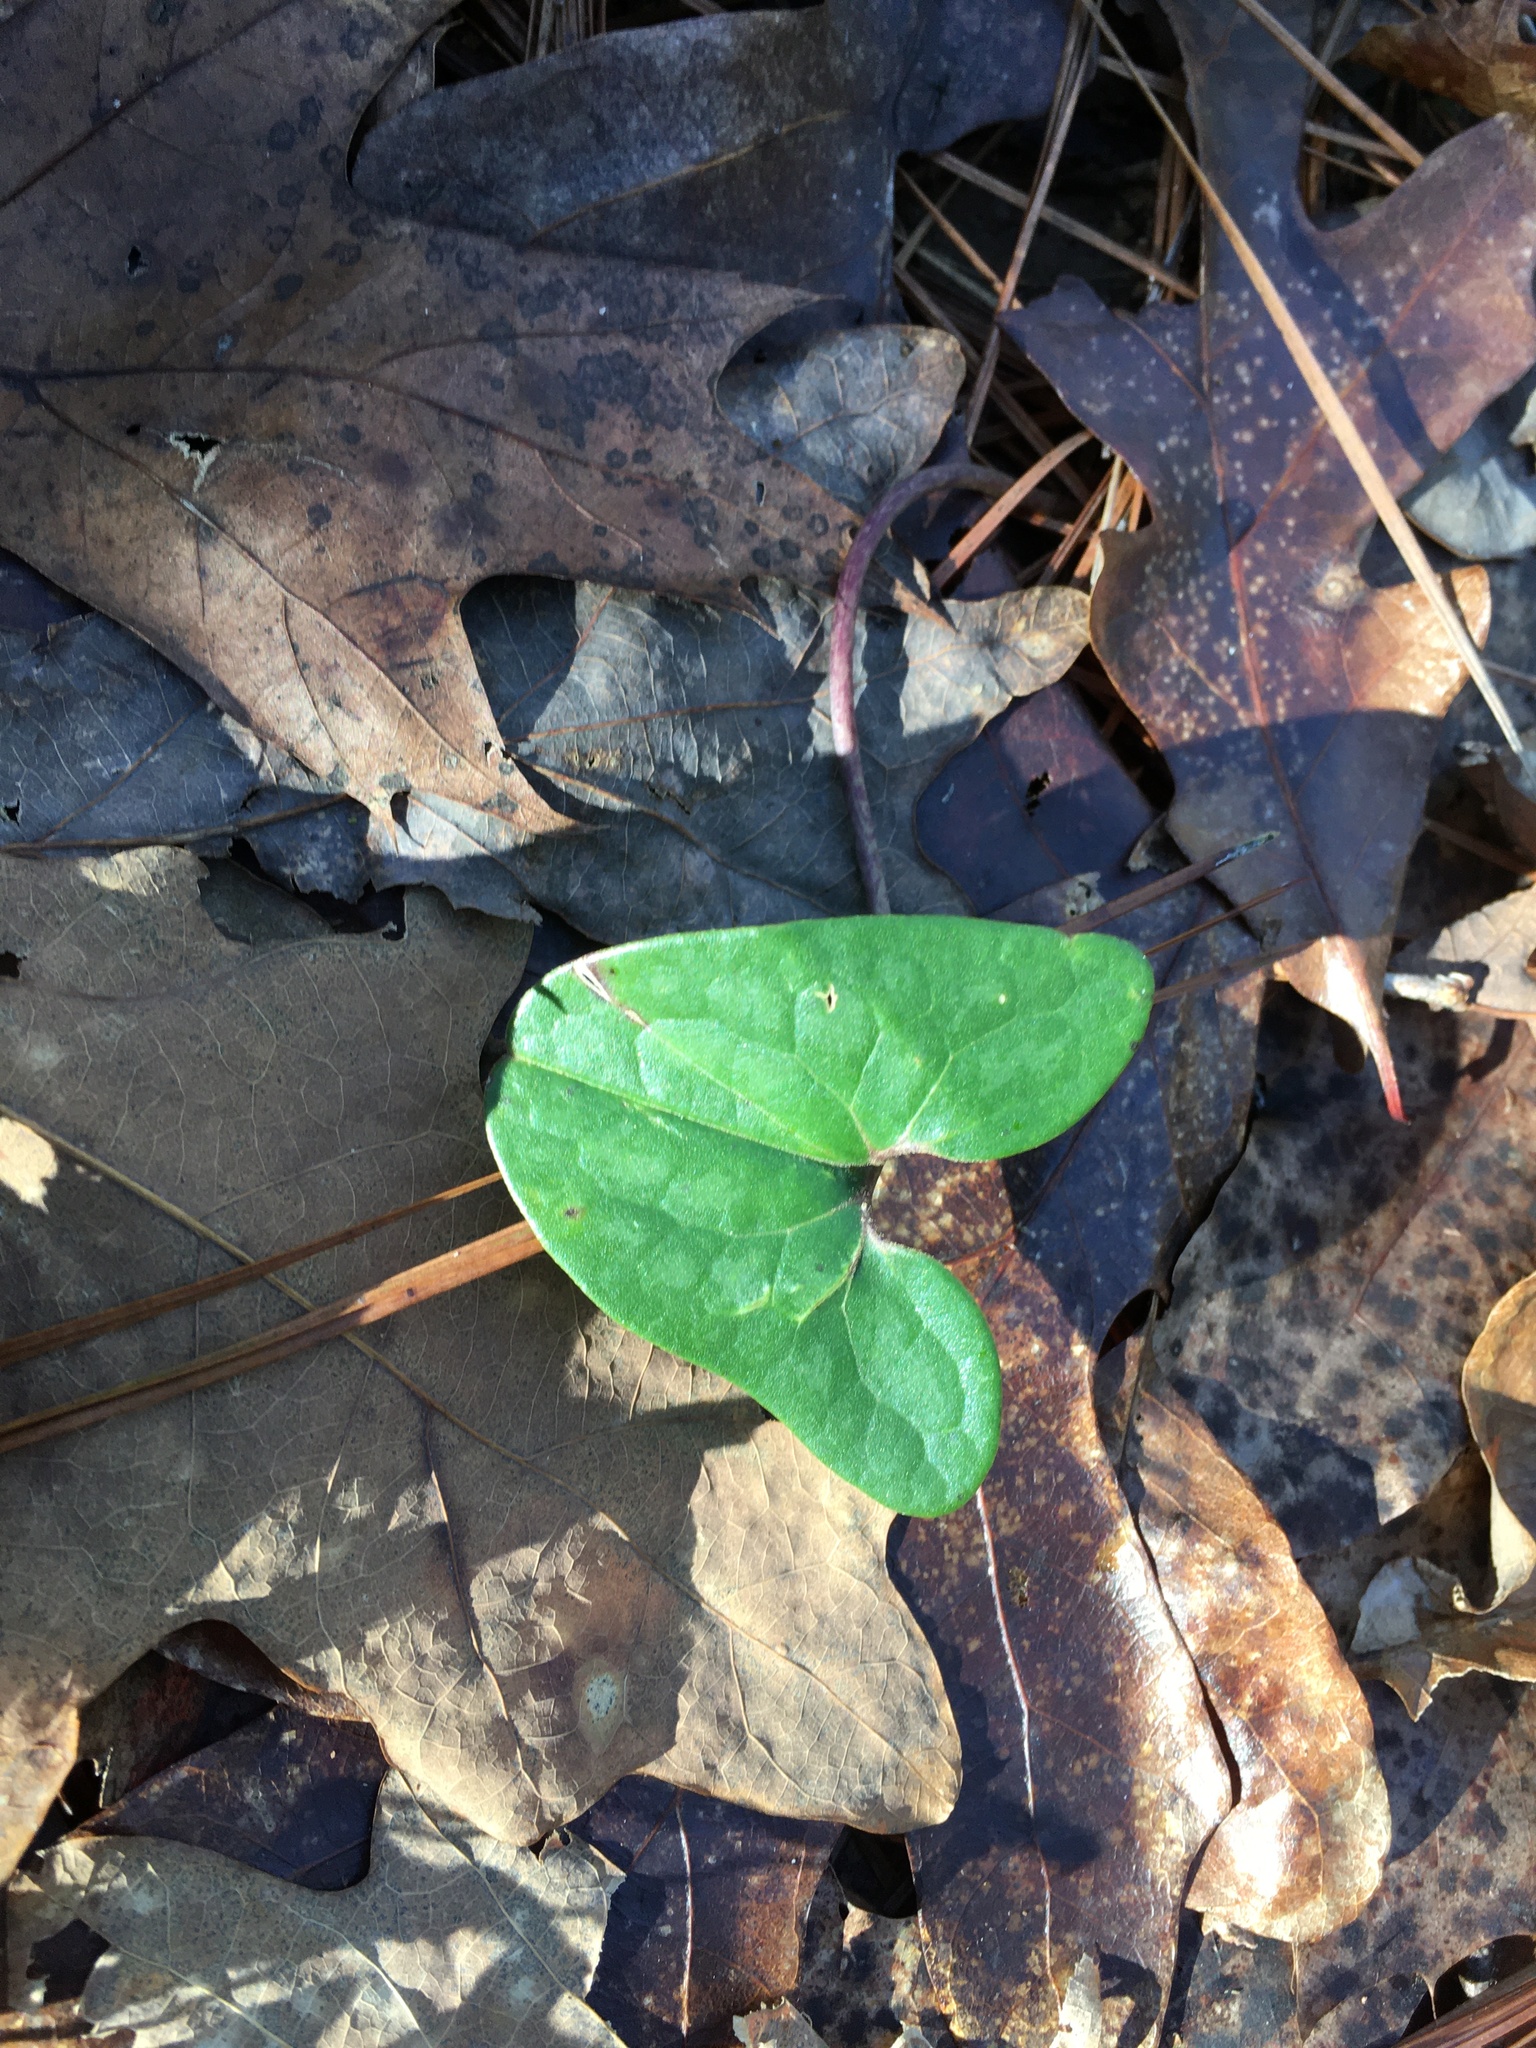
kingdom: Plantae
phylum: Tracheophyta
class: Magnoliopsida
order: Piperales
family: Aristolochiaceae
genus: Hexastylis
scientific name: Hexastylis arifolia
